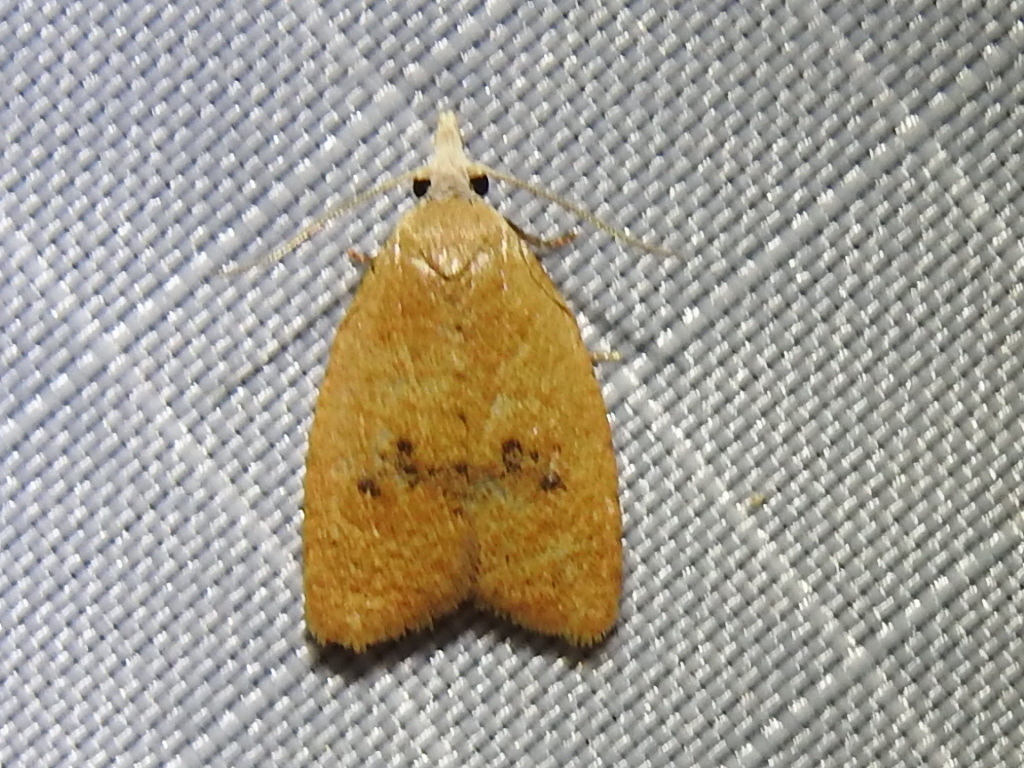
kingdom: Animalia
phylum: Arthropoda
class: Insecta
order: Lepidoptera
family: Tortricidae
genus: Sparganothoides
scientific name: Sparganothoides lentiginosana
